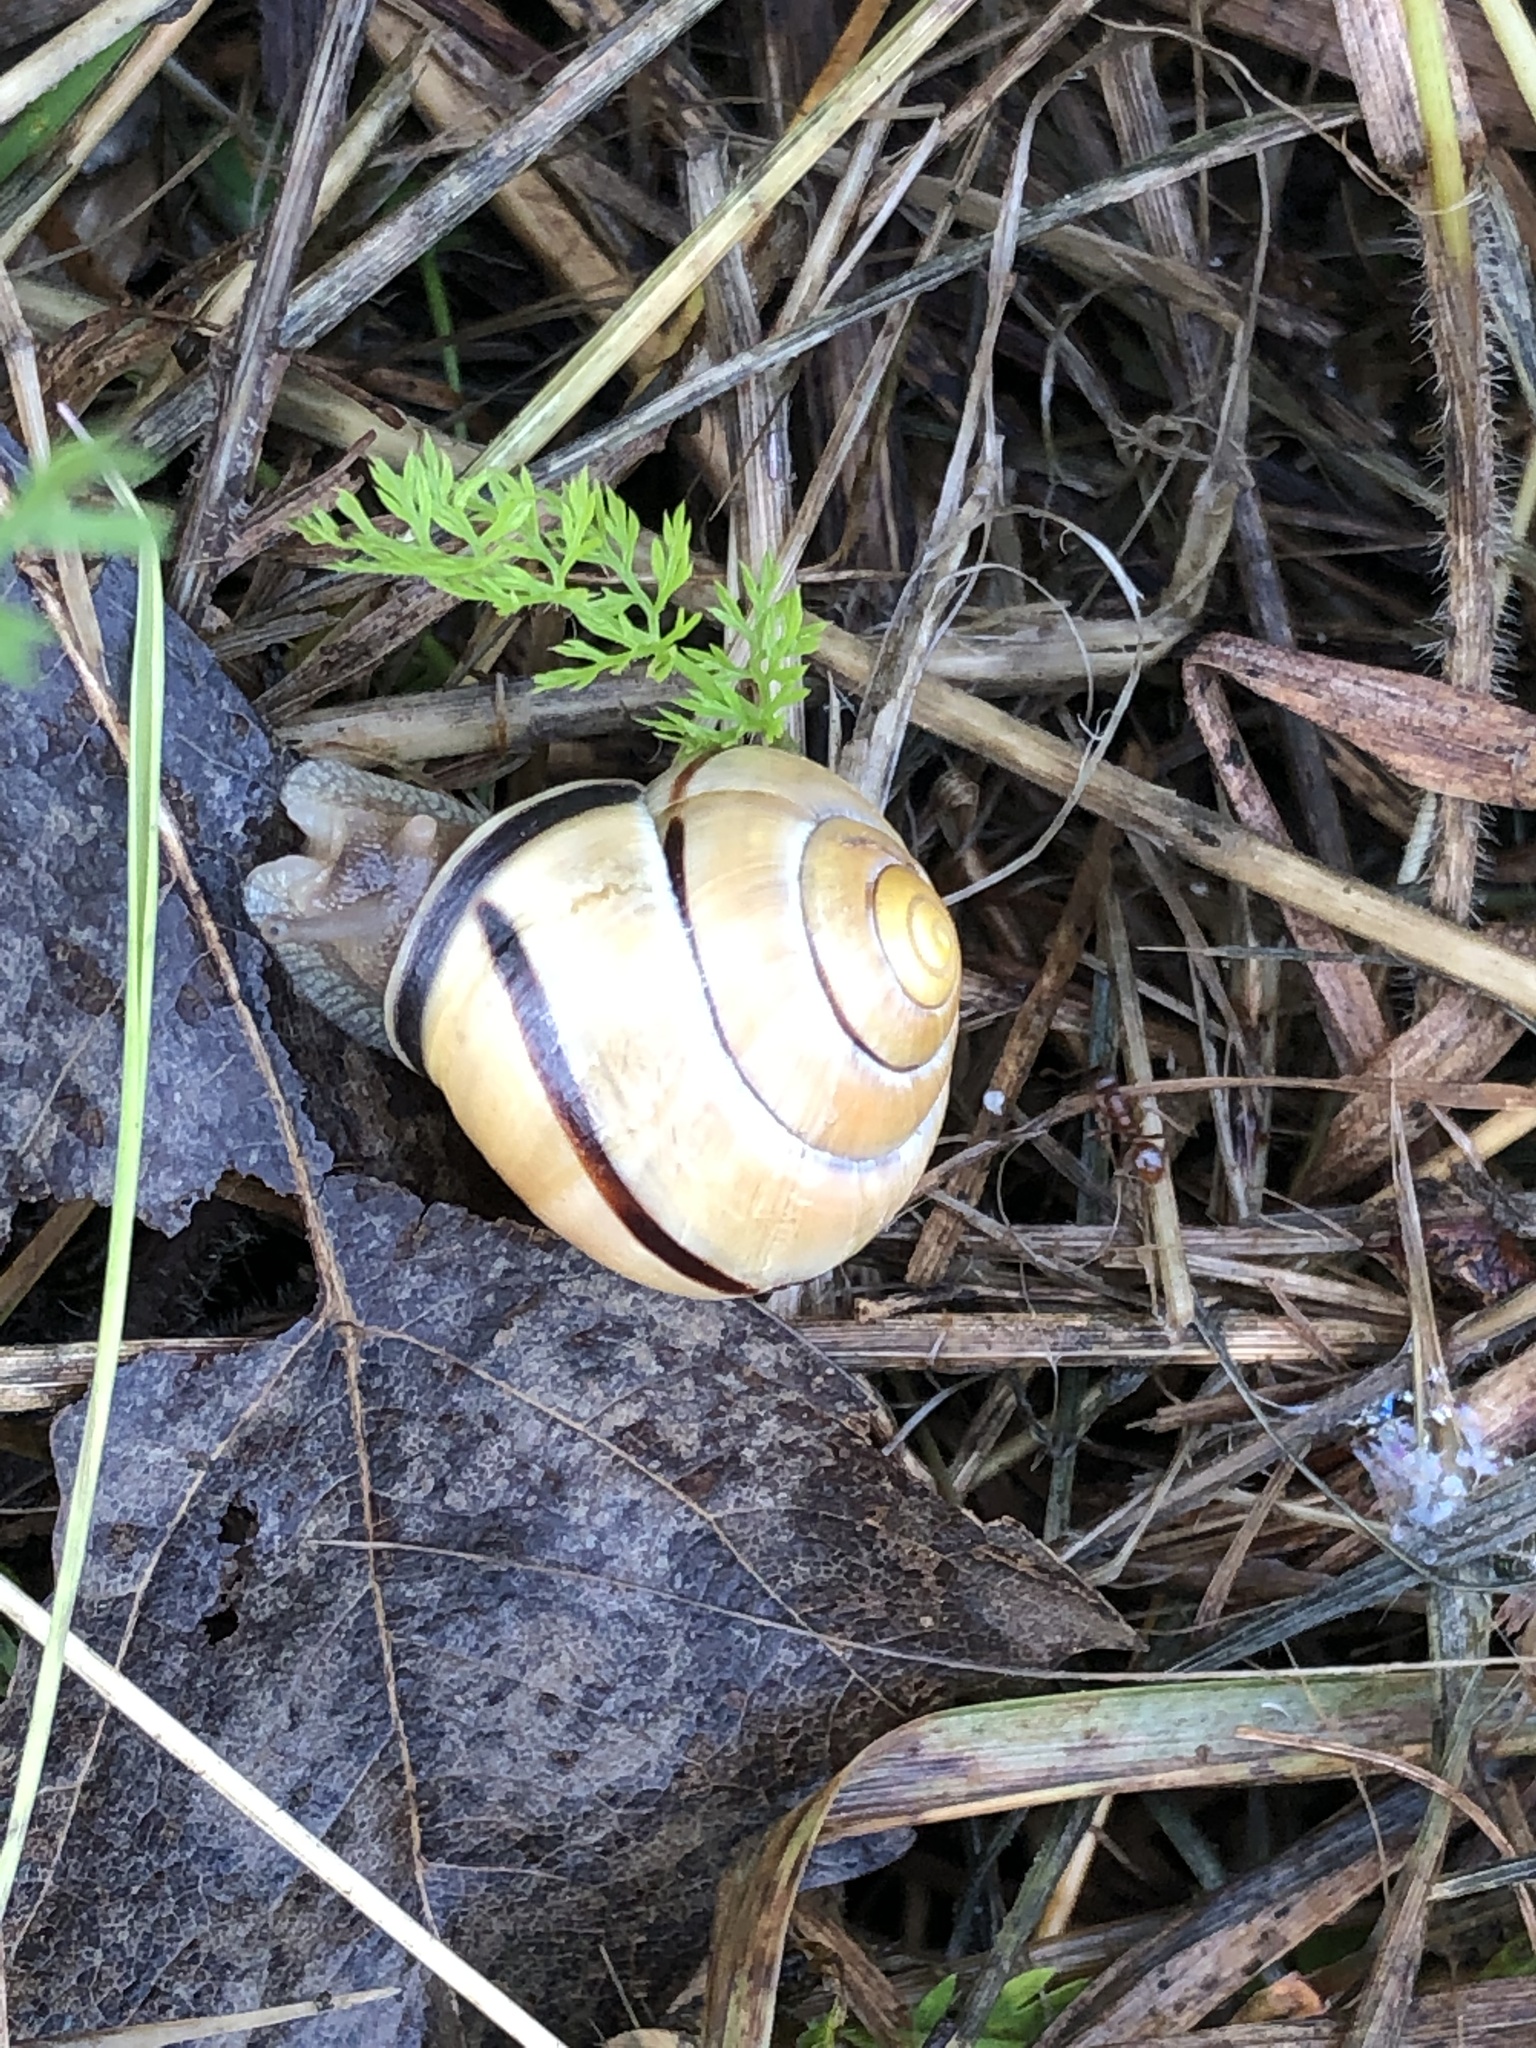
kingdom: Animalia
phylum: Mollusca
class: Gastropoda
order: Stylommatophora
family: Helicidae
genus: Cepaea
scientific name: Cepaea nemoralis
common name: Grovesnail
